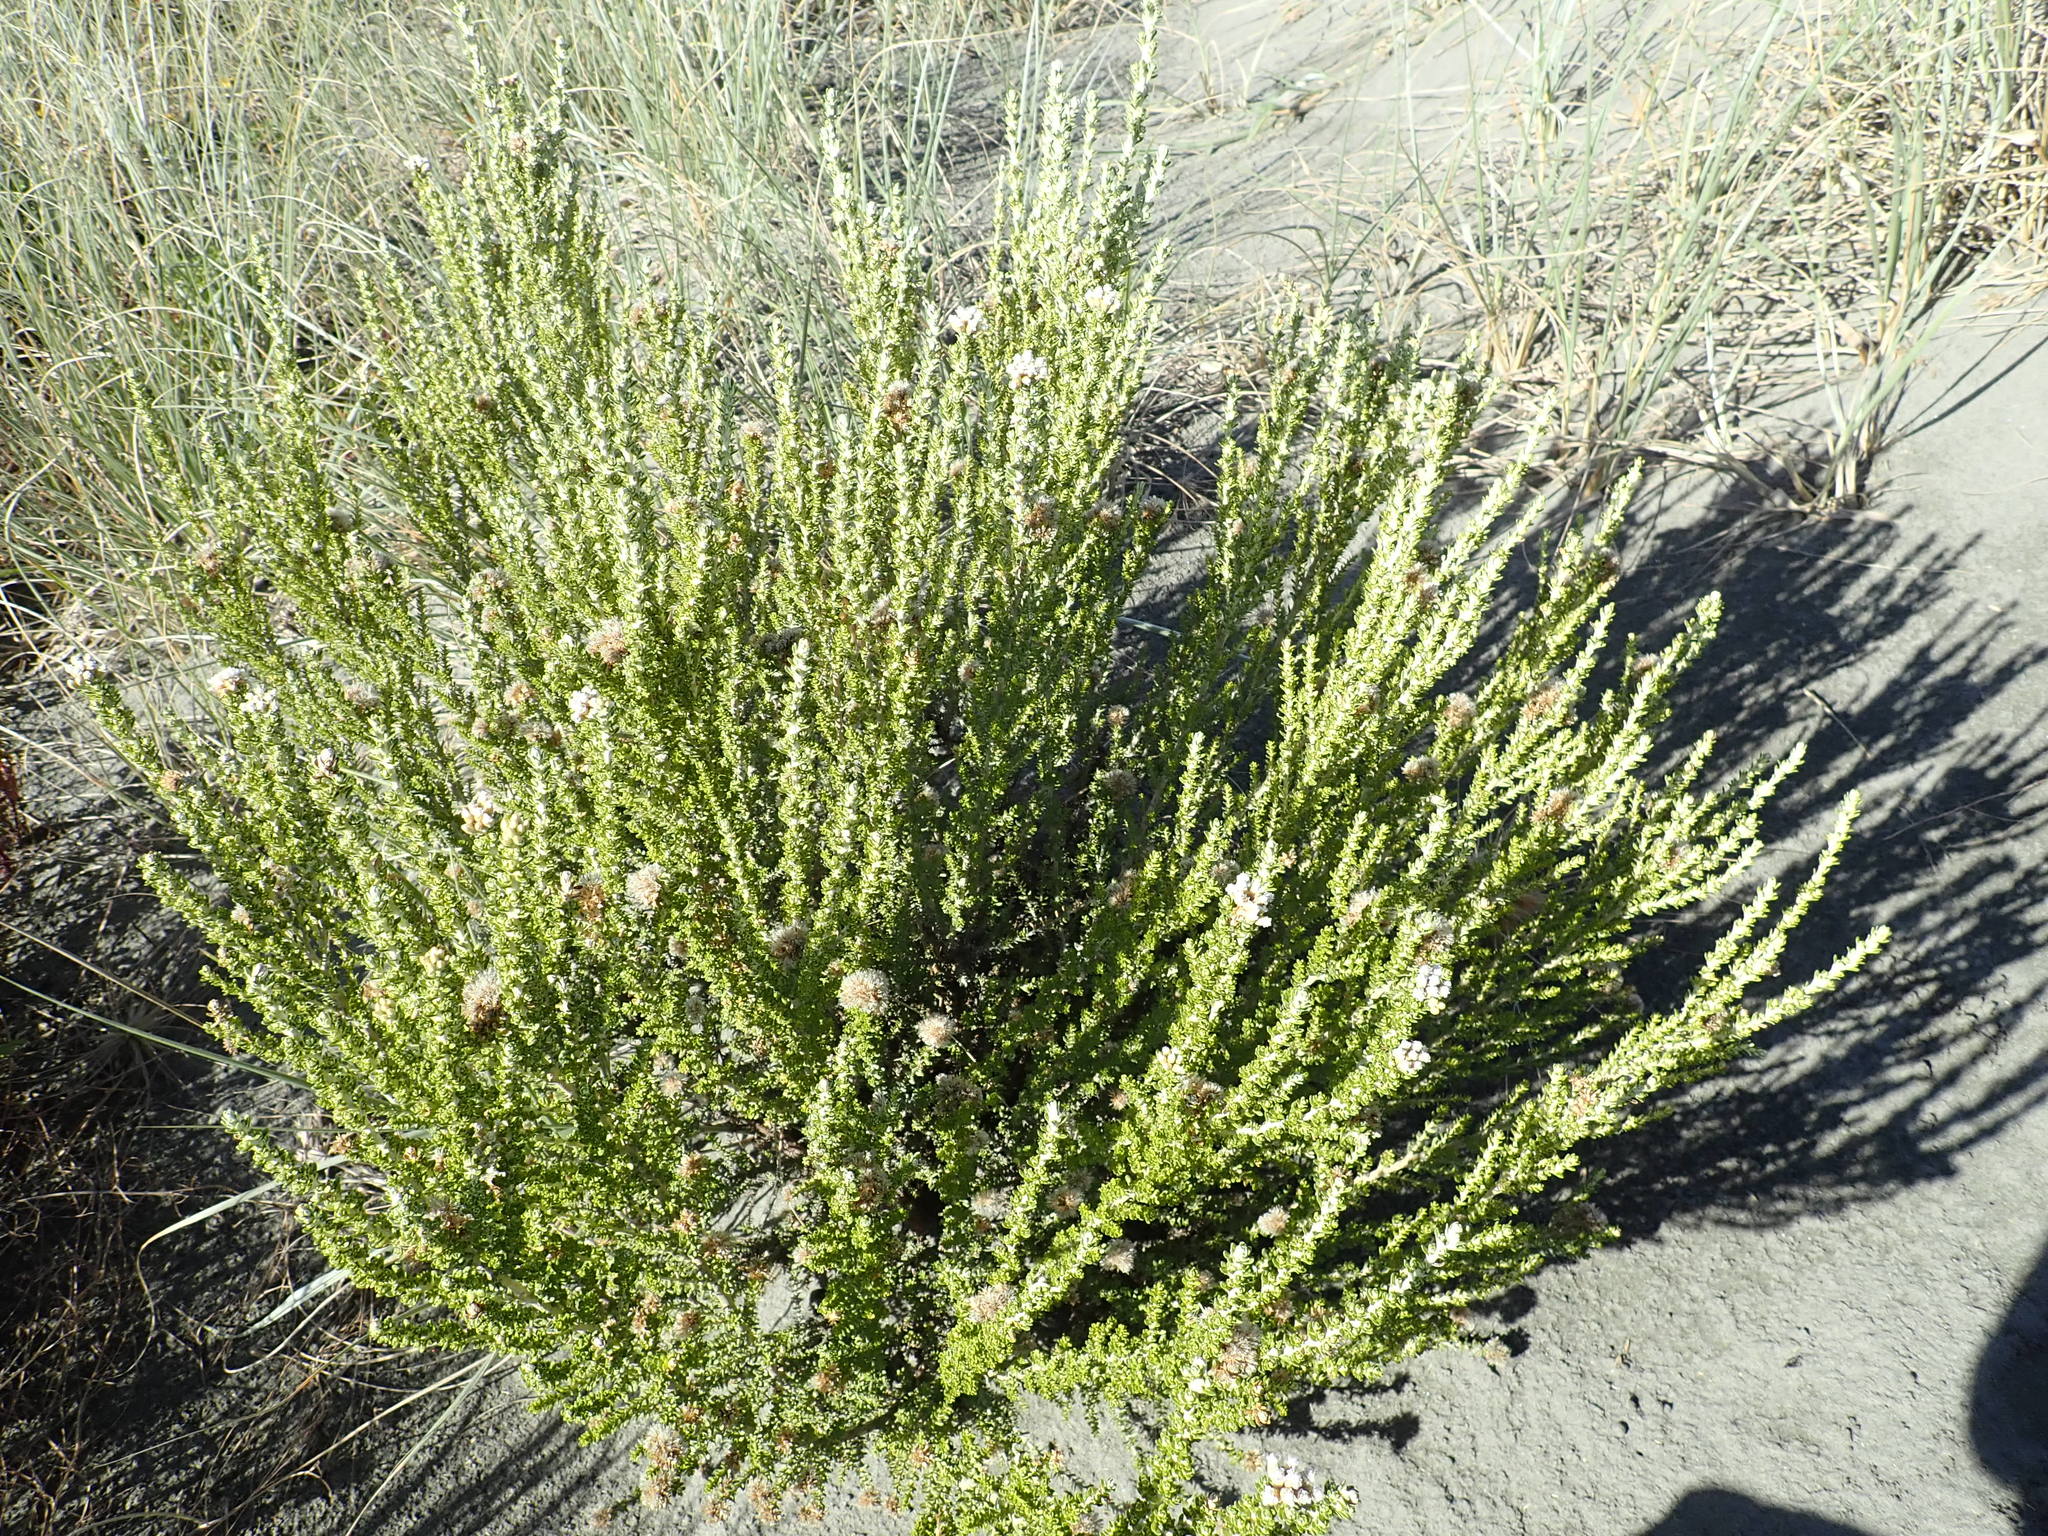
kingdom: Plantae
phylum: Tracheophyta
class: Magnoliopsida
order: Asterales
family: Asteraceae
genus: Ozothamnus
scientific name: Ozothamnus leptophyllus
